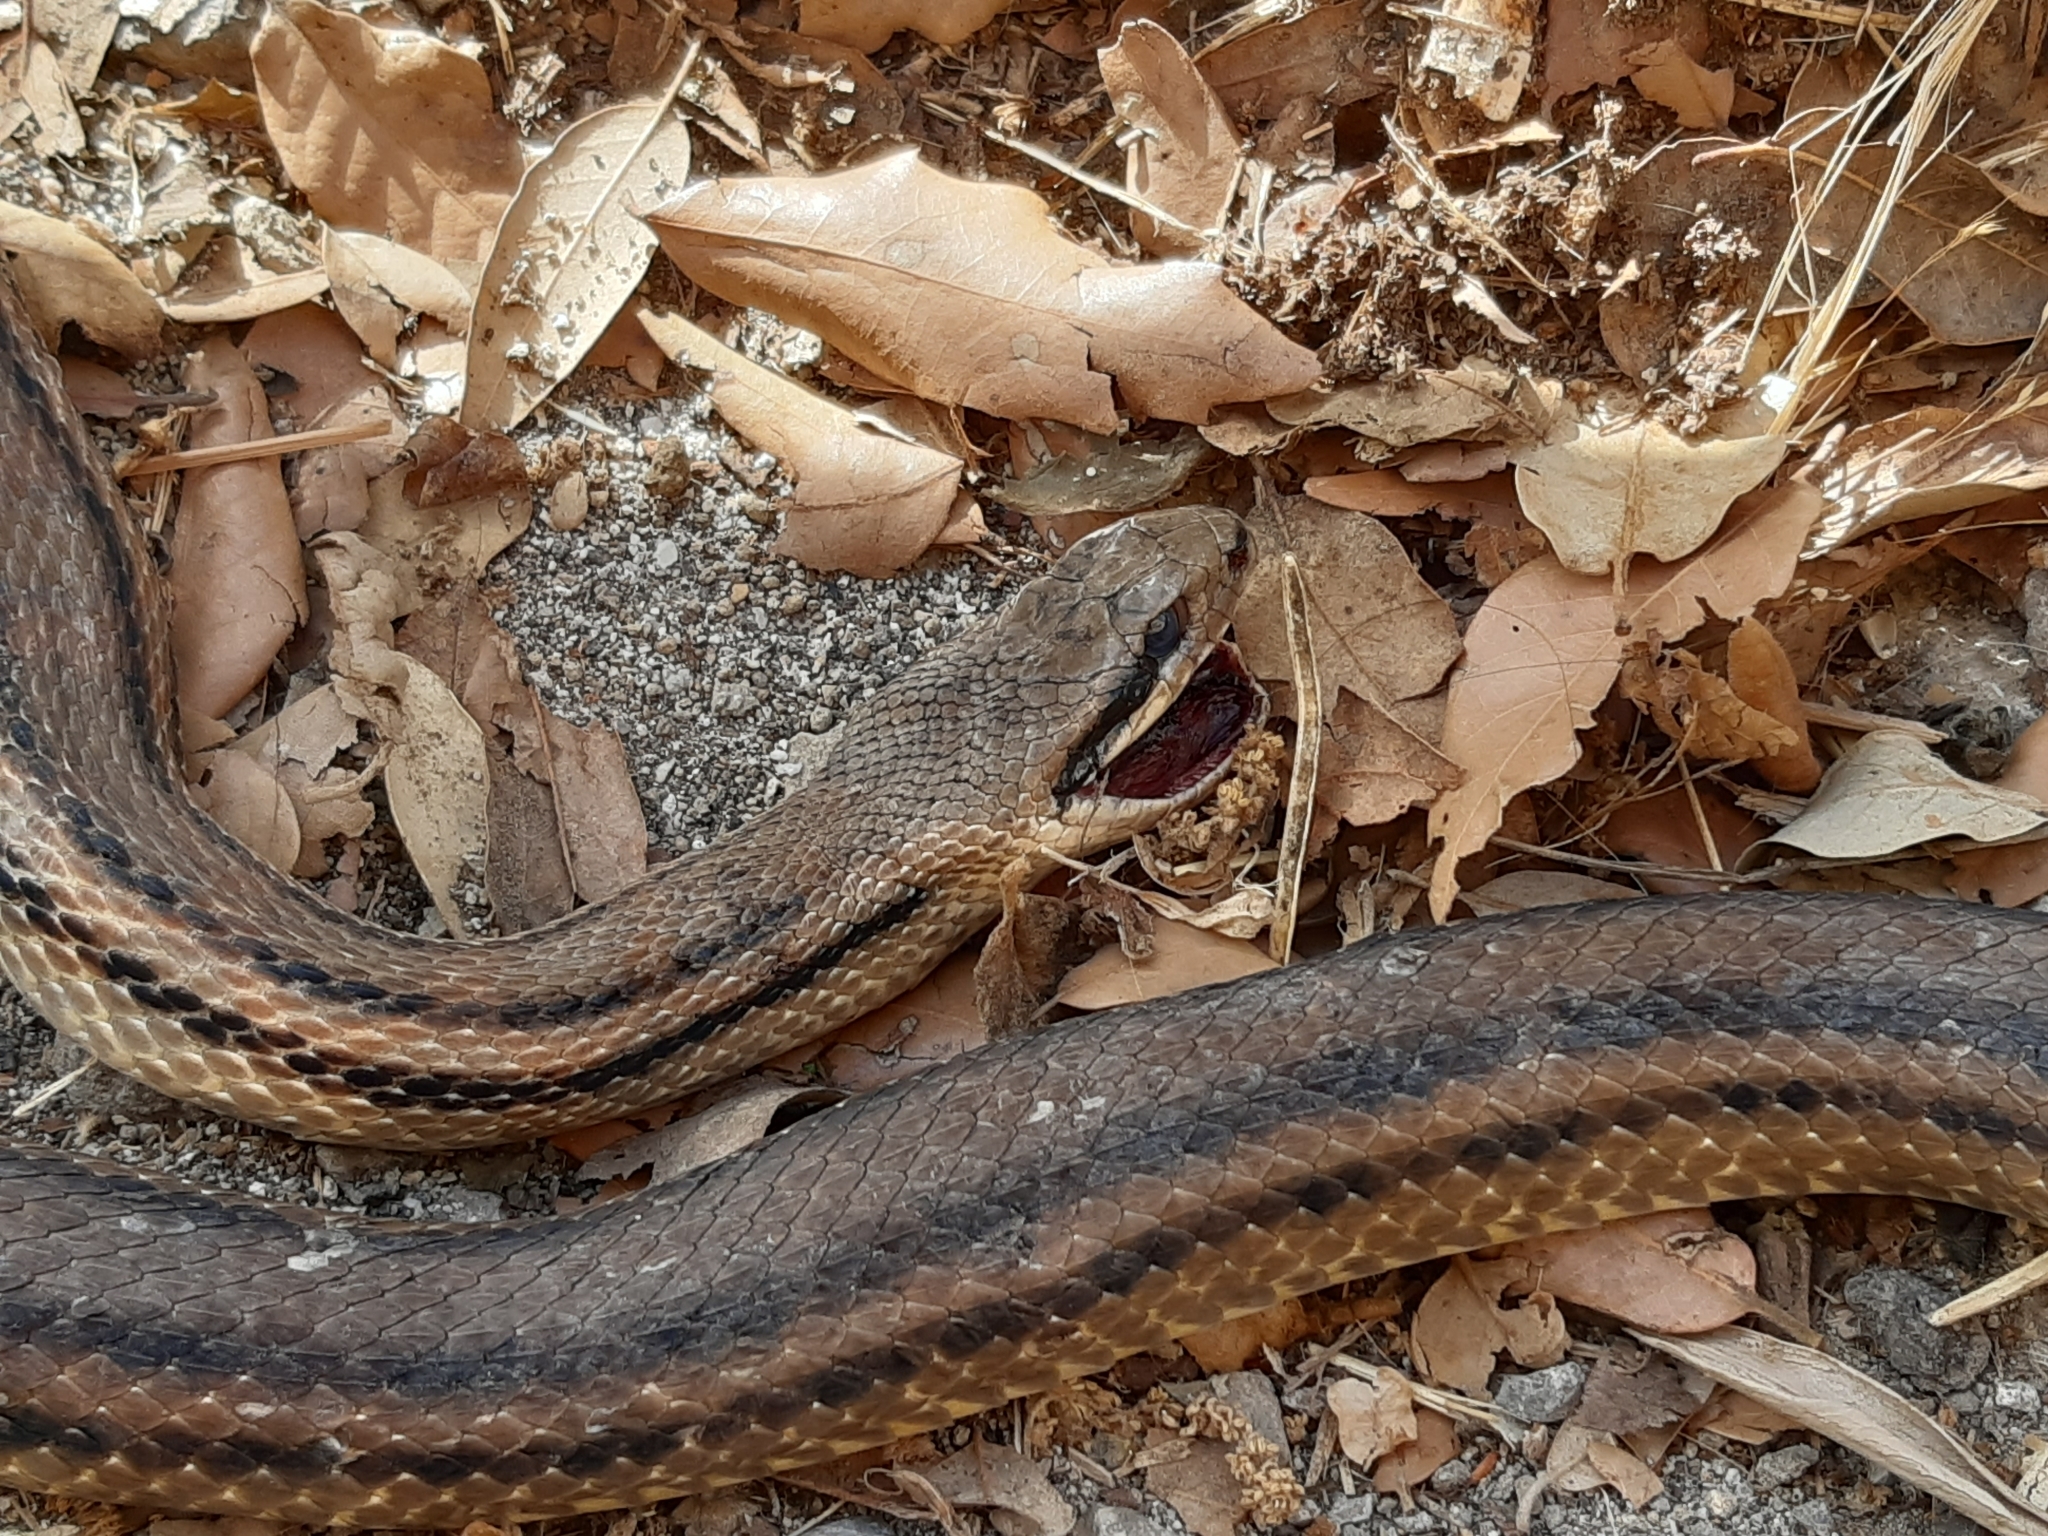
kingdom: Animalia
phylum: Chordata
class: Squamata
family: Colubridae
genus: Elaphe
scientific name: Elaphe quatuorlineata
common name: Four-lined snake
